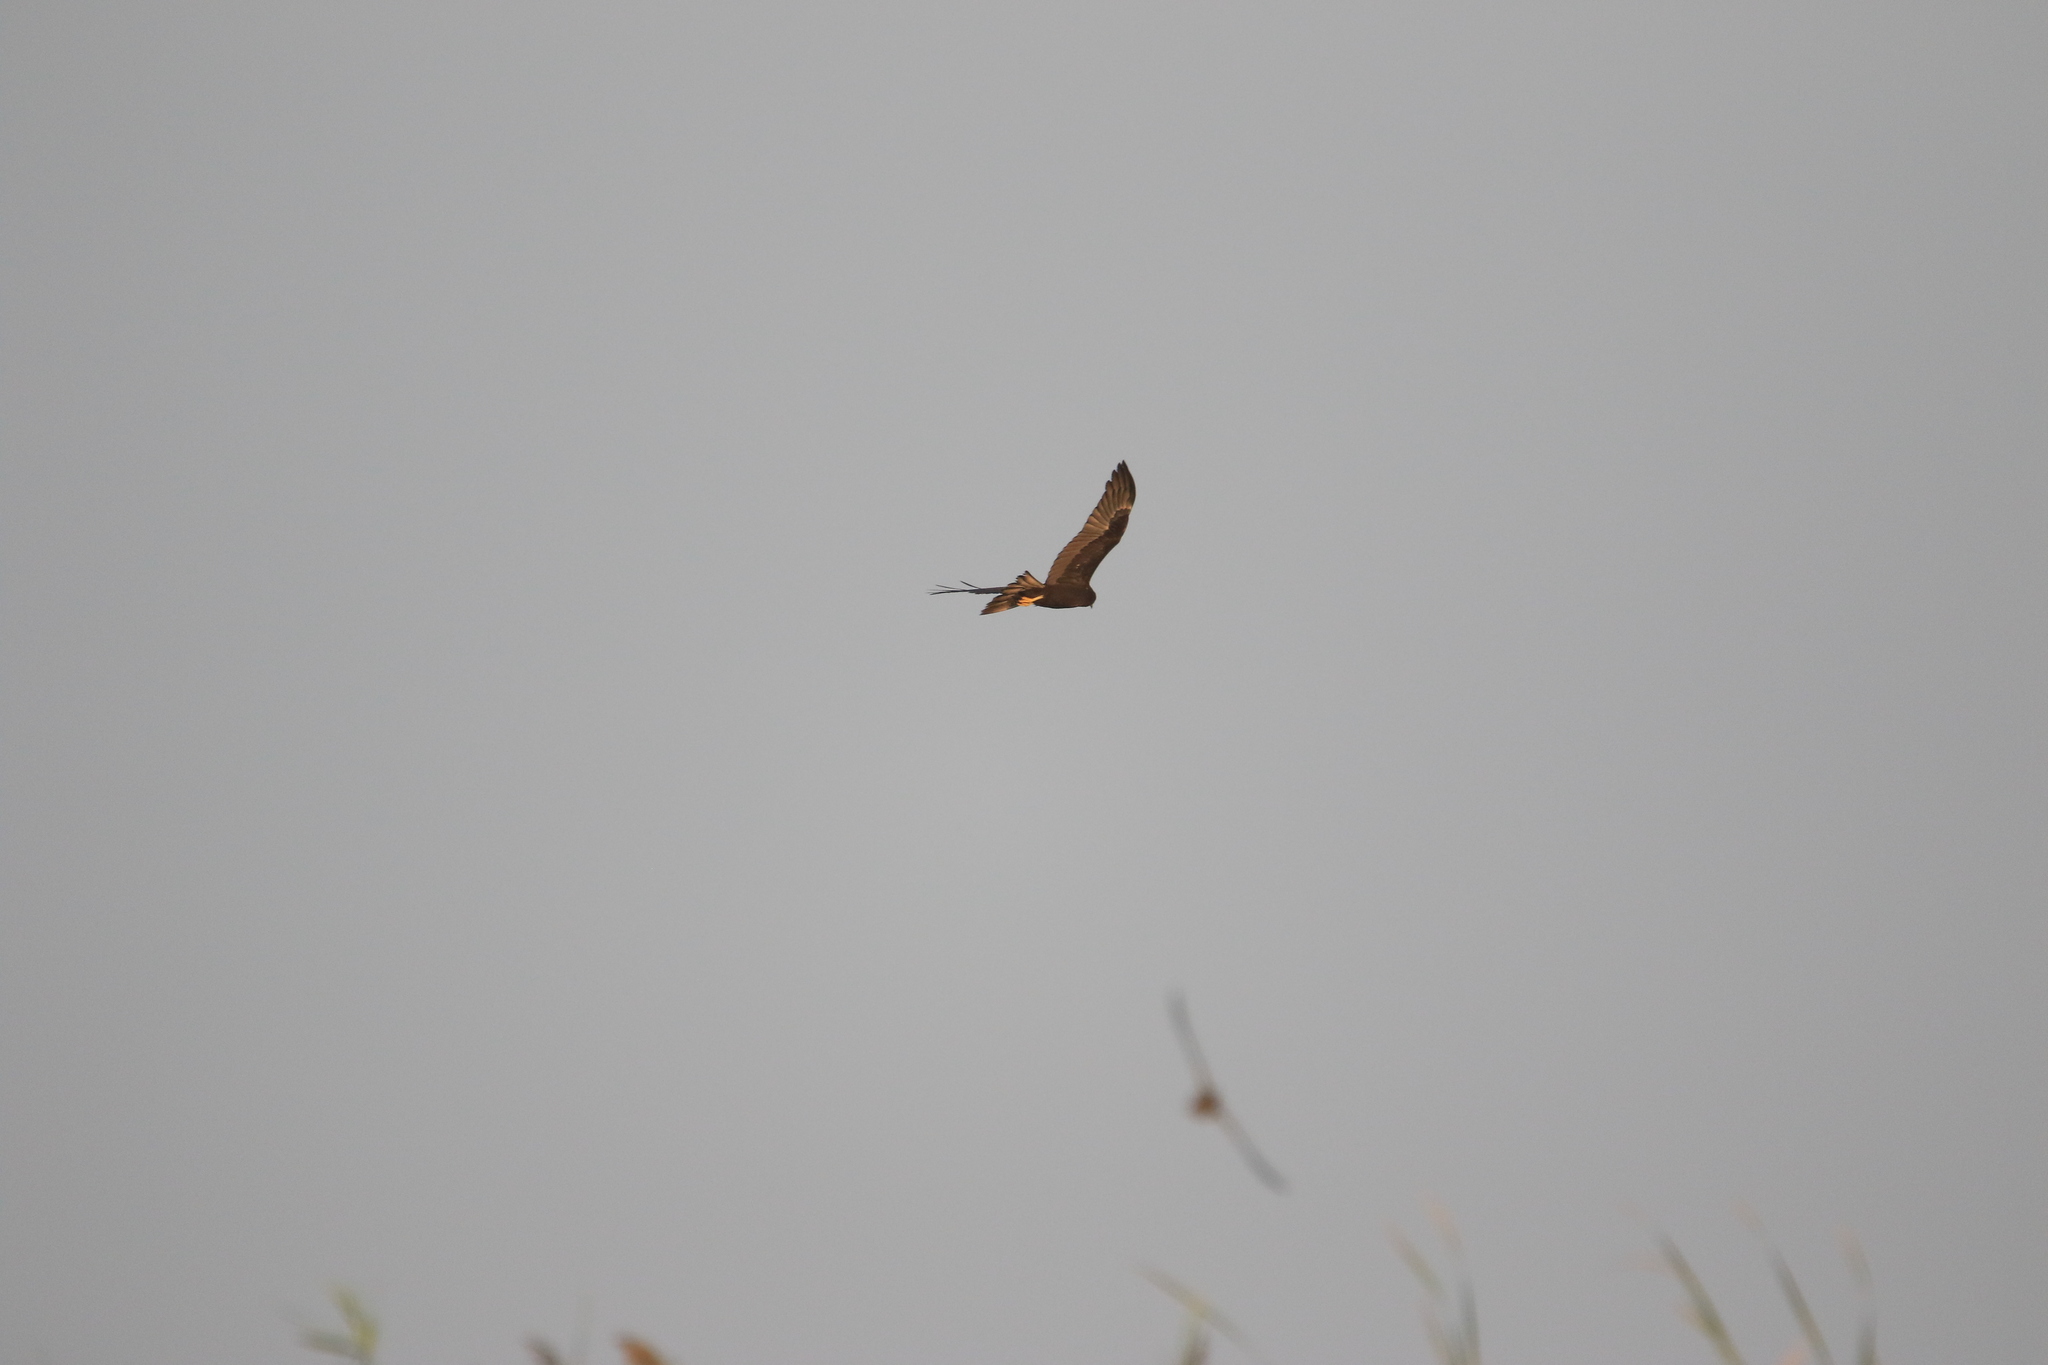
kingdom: Animalia
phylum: Chordata
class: Aves
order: Accipitriformes
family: Accipitridae
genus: Circus
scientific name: Circus aeruginosus
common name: Western marsh harrier
